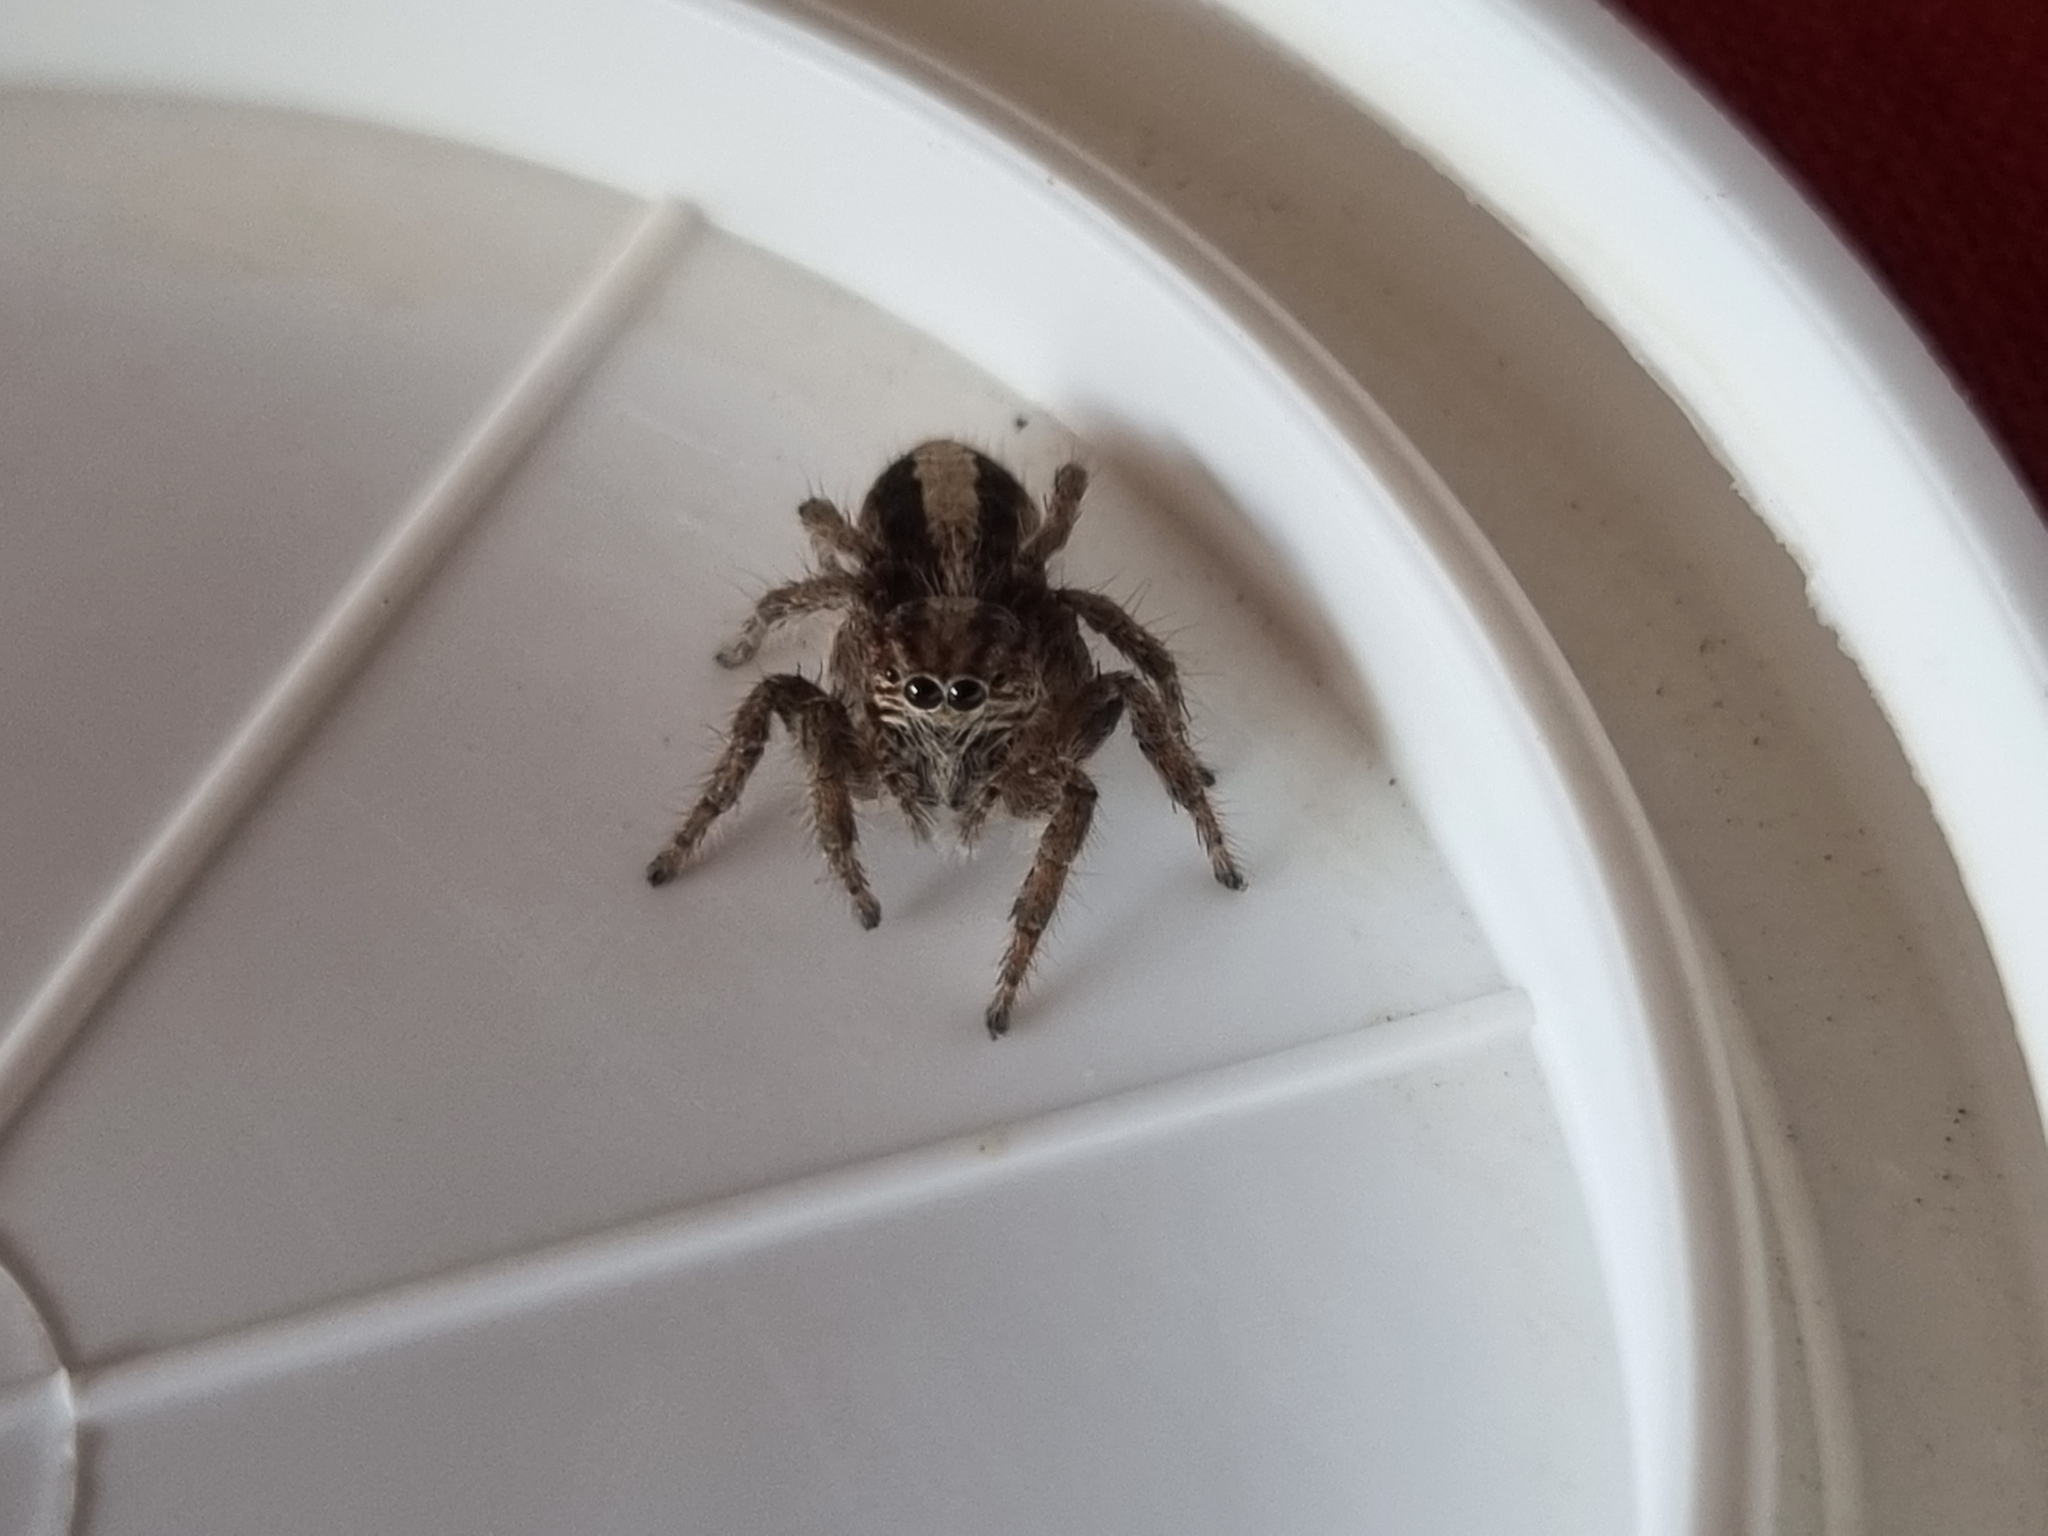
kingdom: Animalia
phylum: Arthropoda
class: Arachnida
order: Araneae
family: Salticidae
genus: Megafreya
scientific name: Megafreya sutrix
